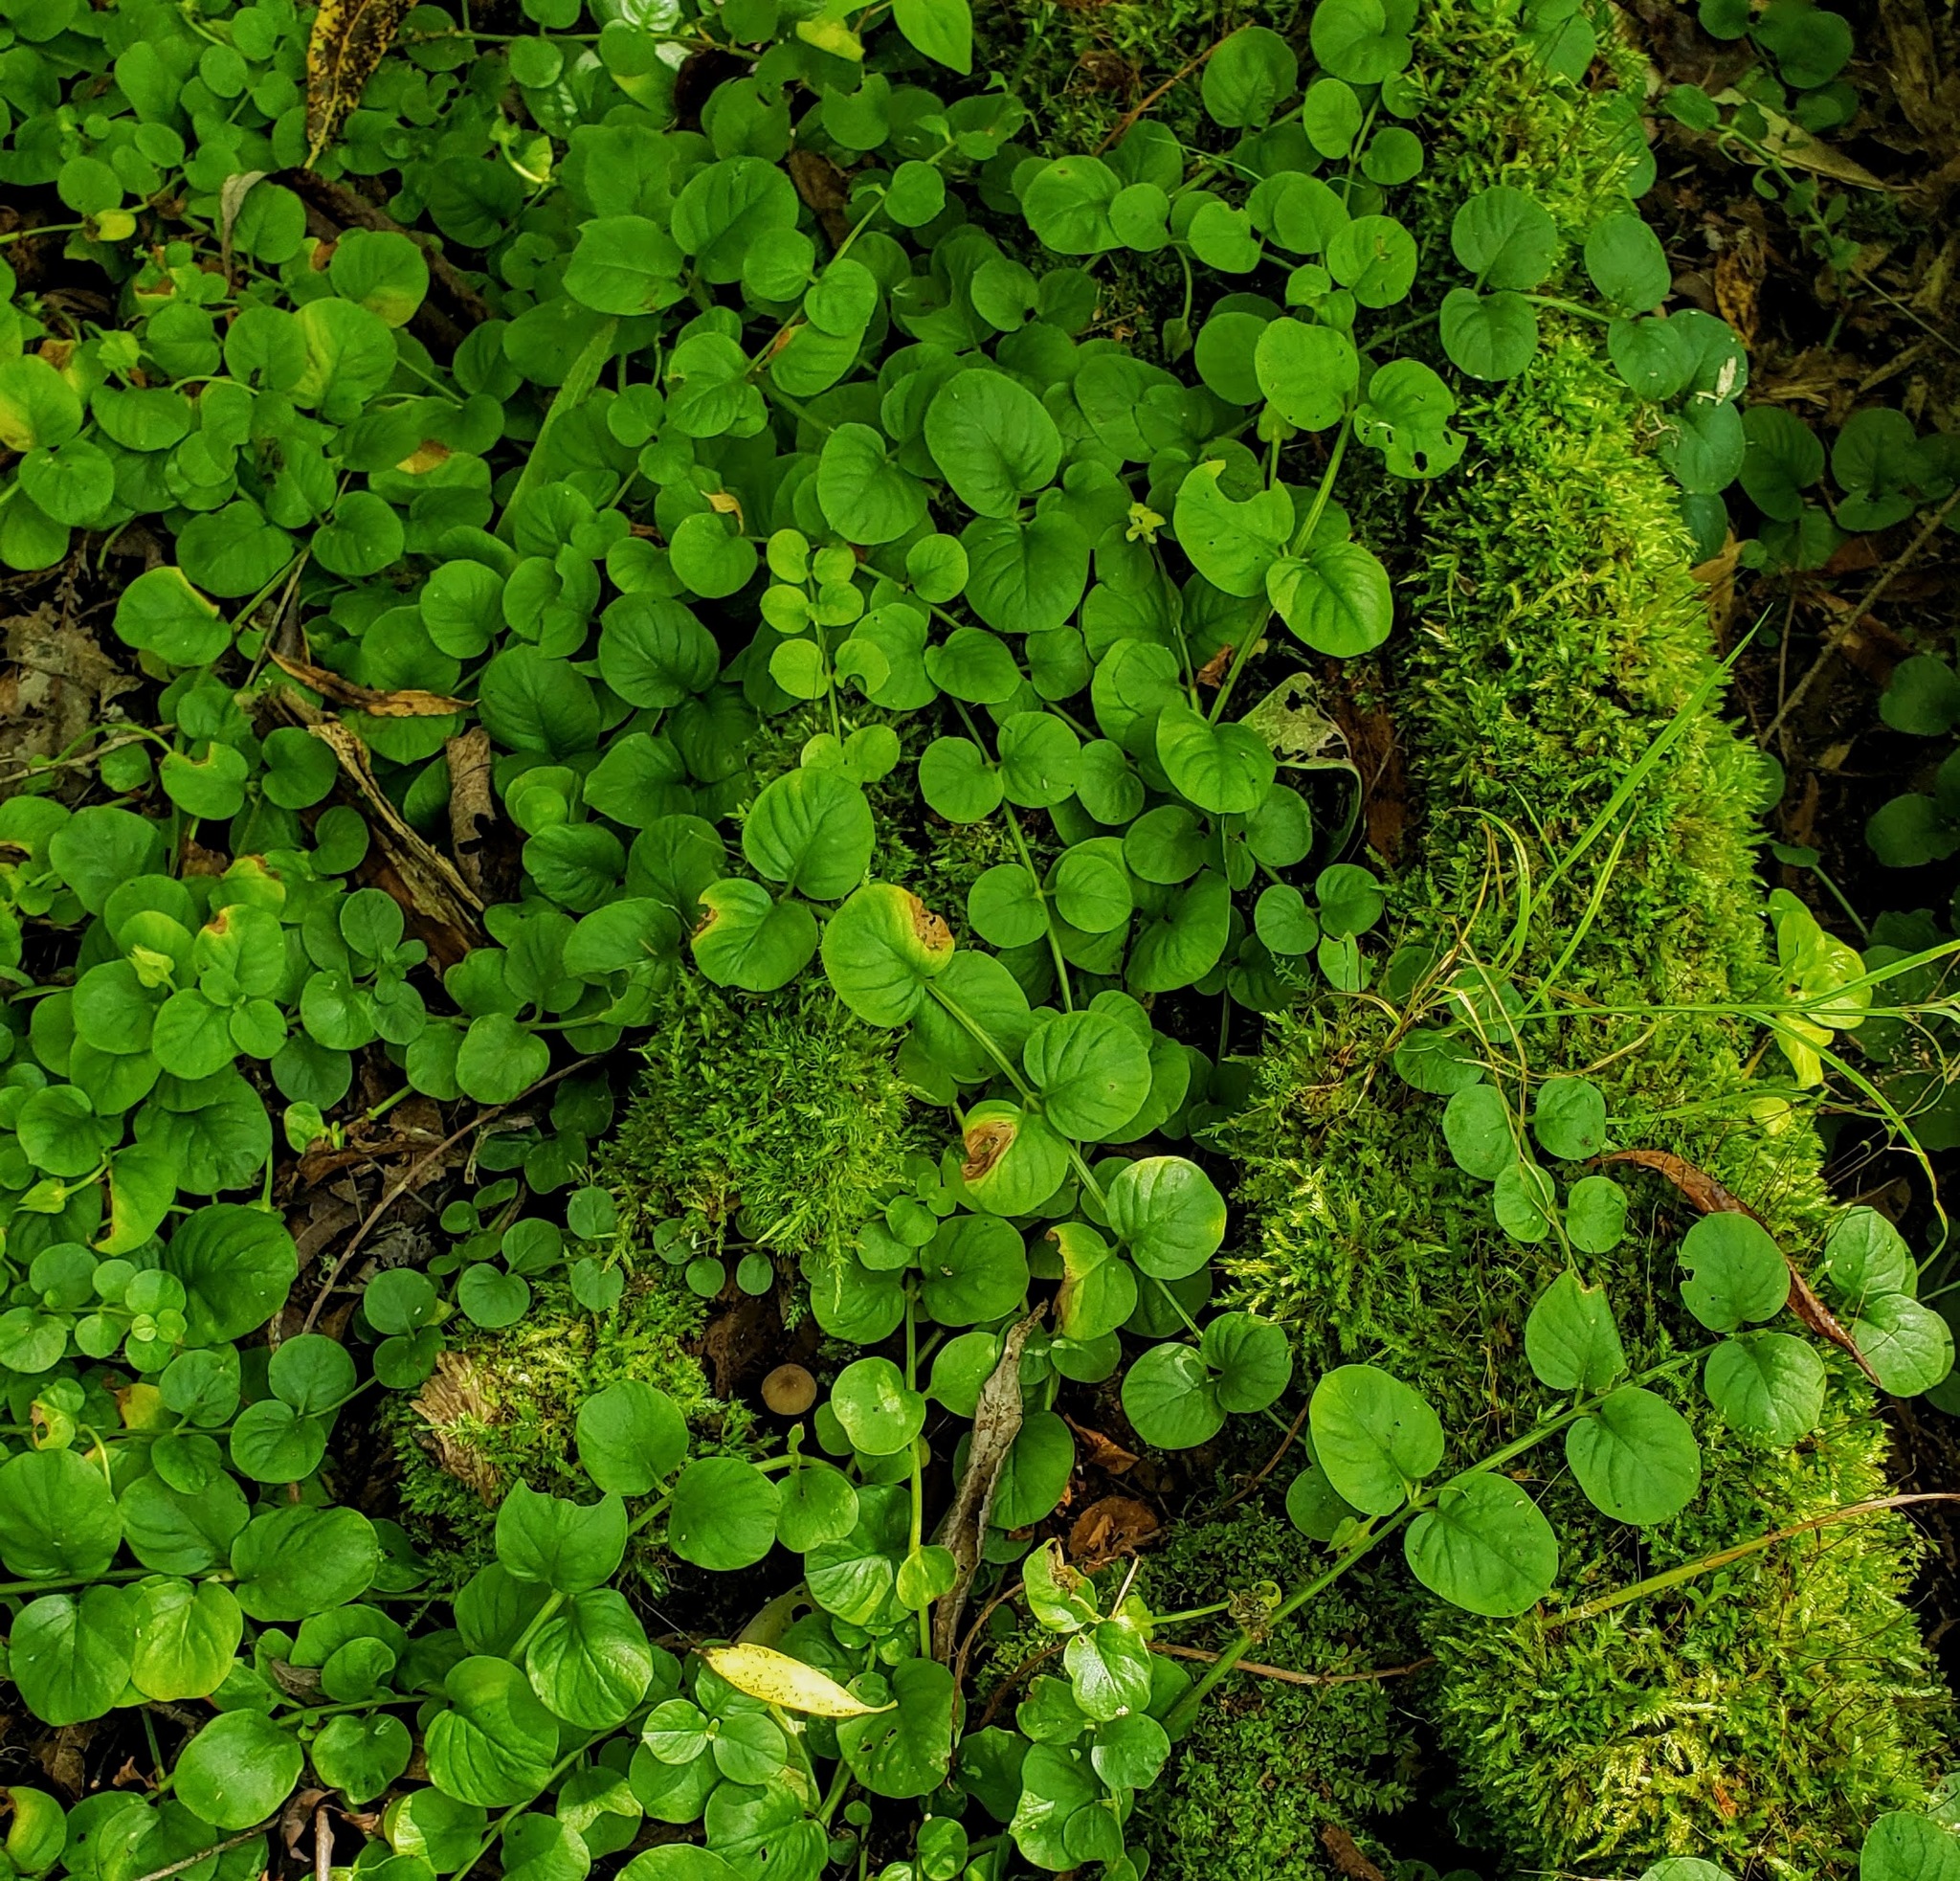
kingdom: Plantae
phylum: Tracheophyta
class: Magnoliopsida
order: Ericales
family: Primulaceae
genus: Lysimachia
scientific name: Lysimachia nummularia
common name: Moneywort
